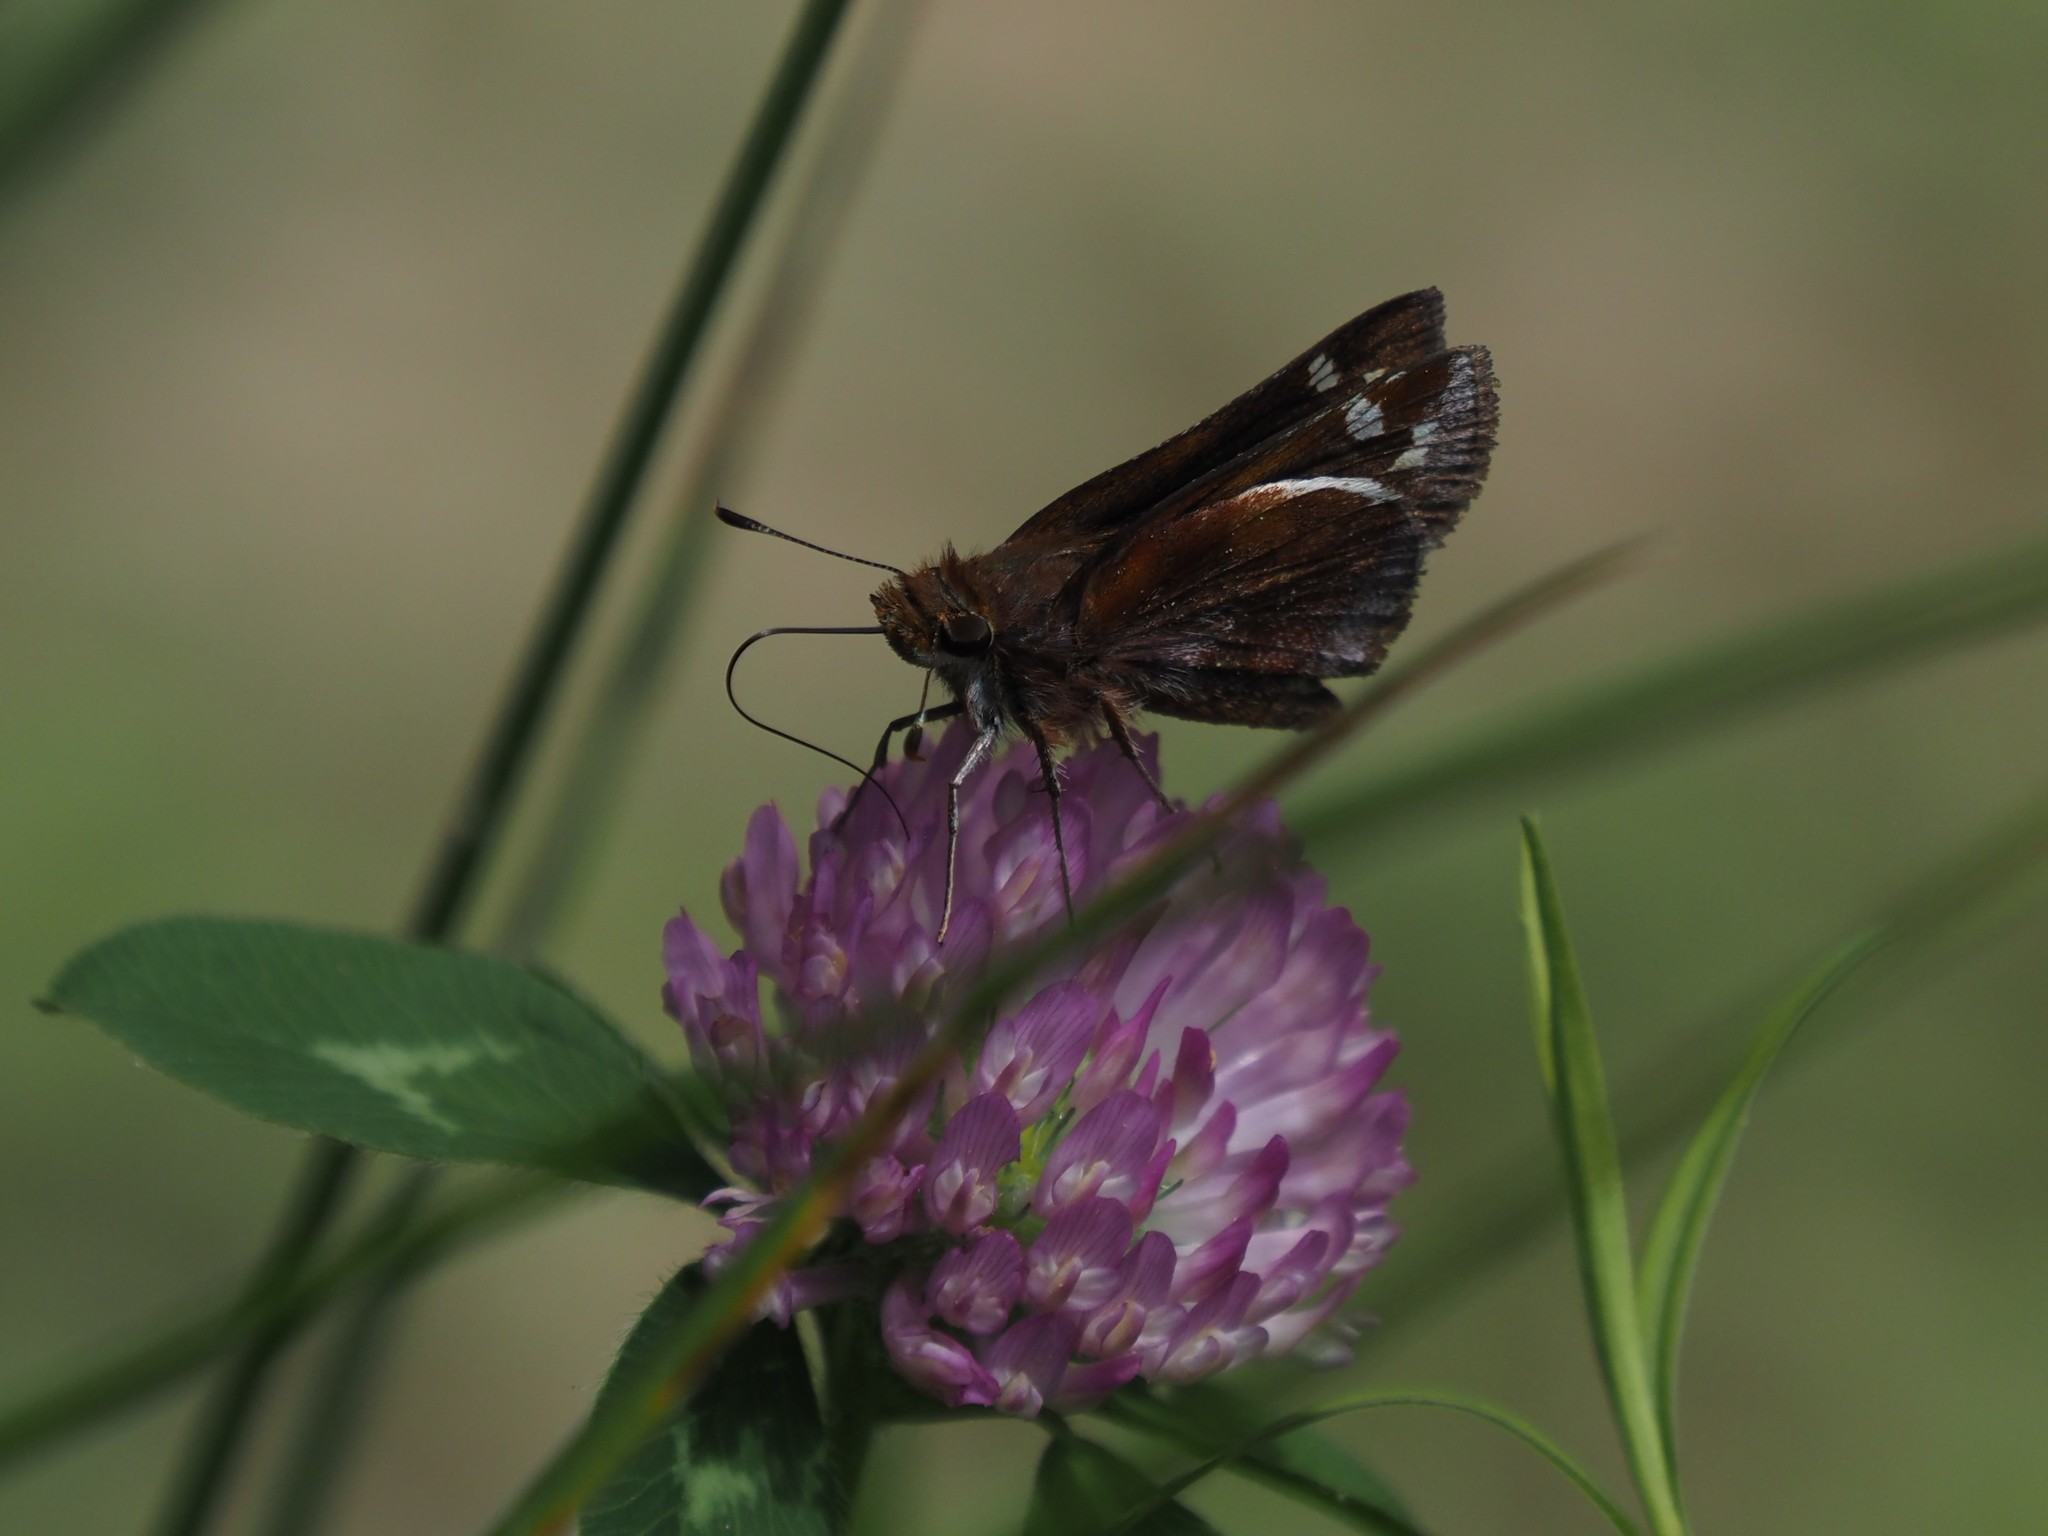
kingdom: Animalia
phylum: Arthropoda
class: Insecta
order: Lepidoptera
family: Hesperiidae
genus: Lon
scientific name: Lon zabulon
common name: Zabulon skipper
